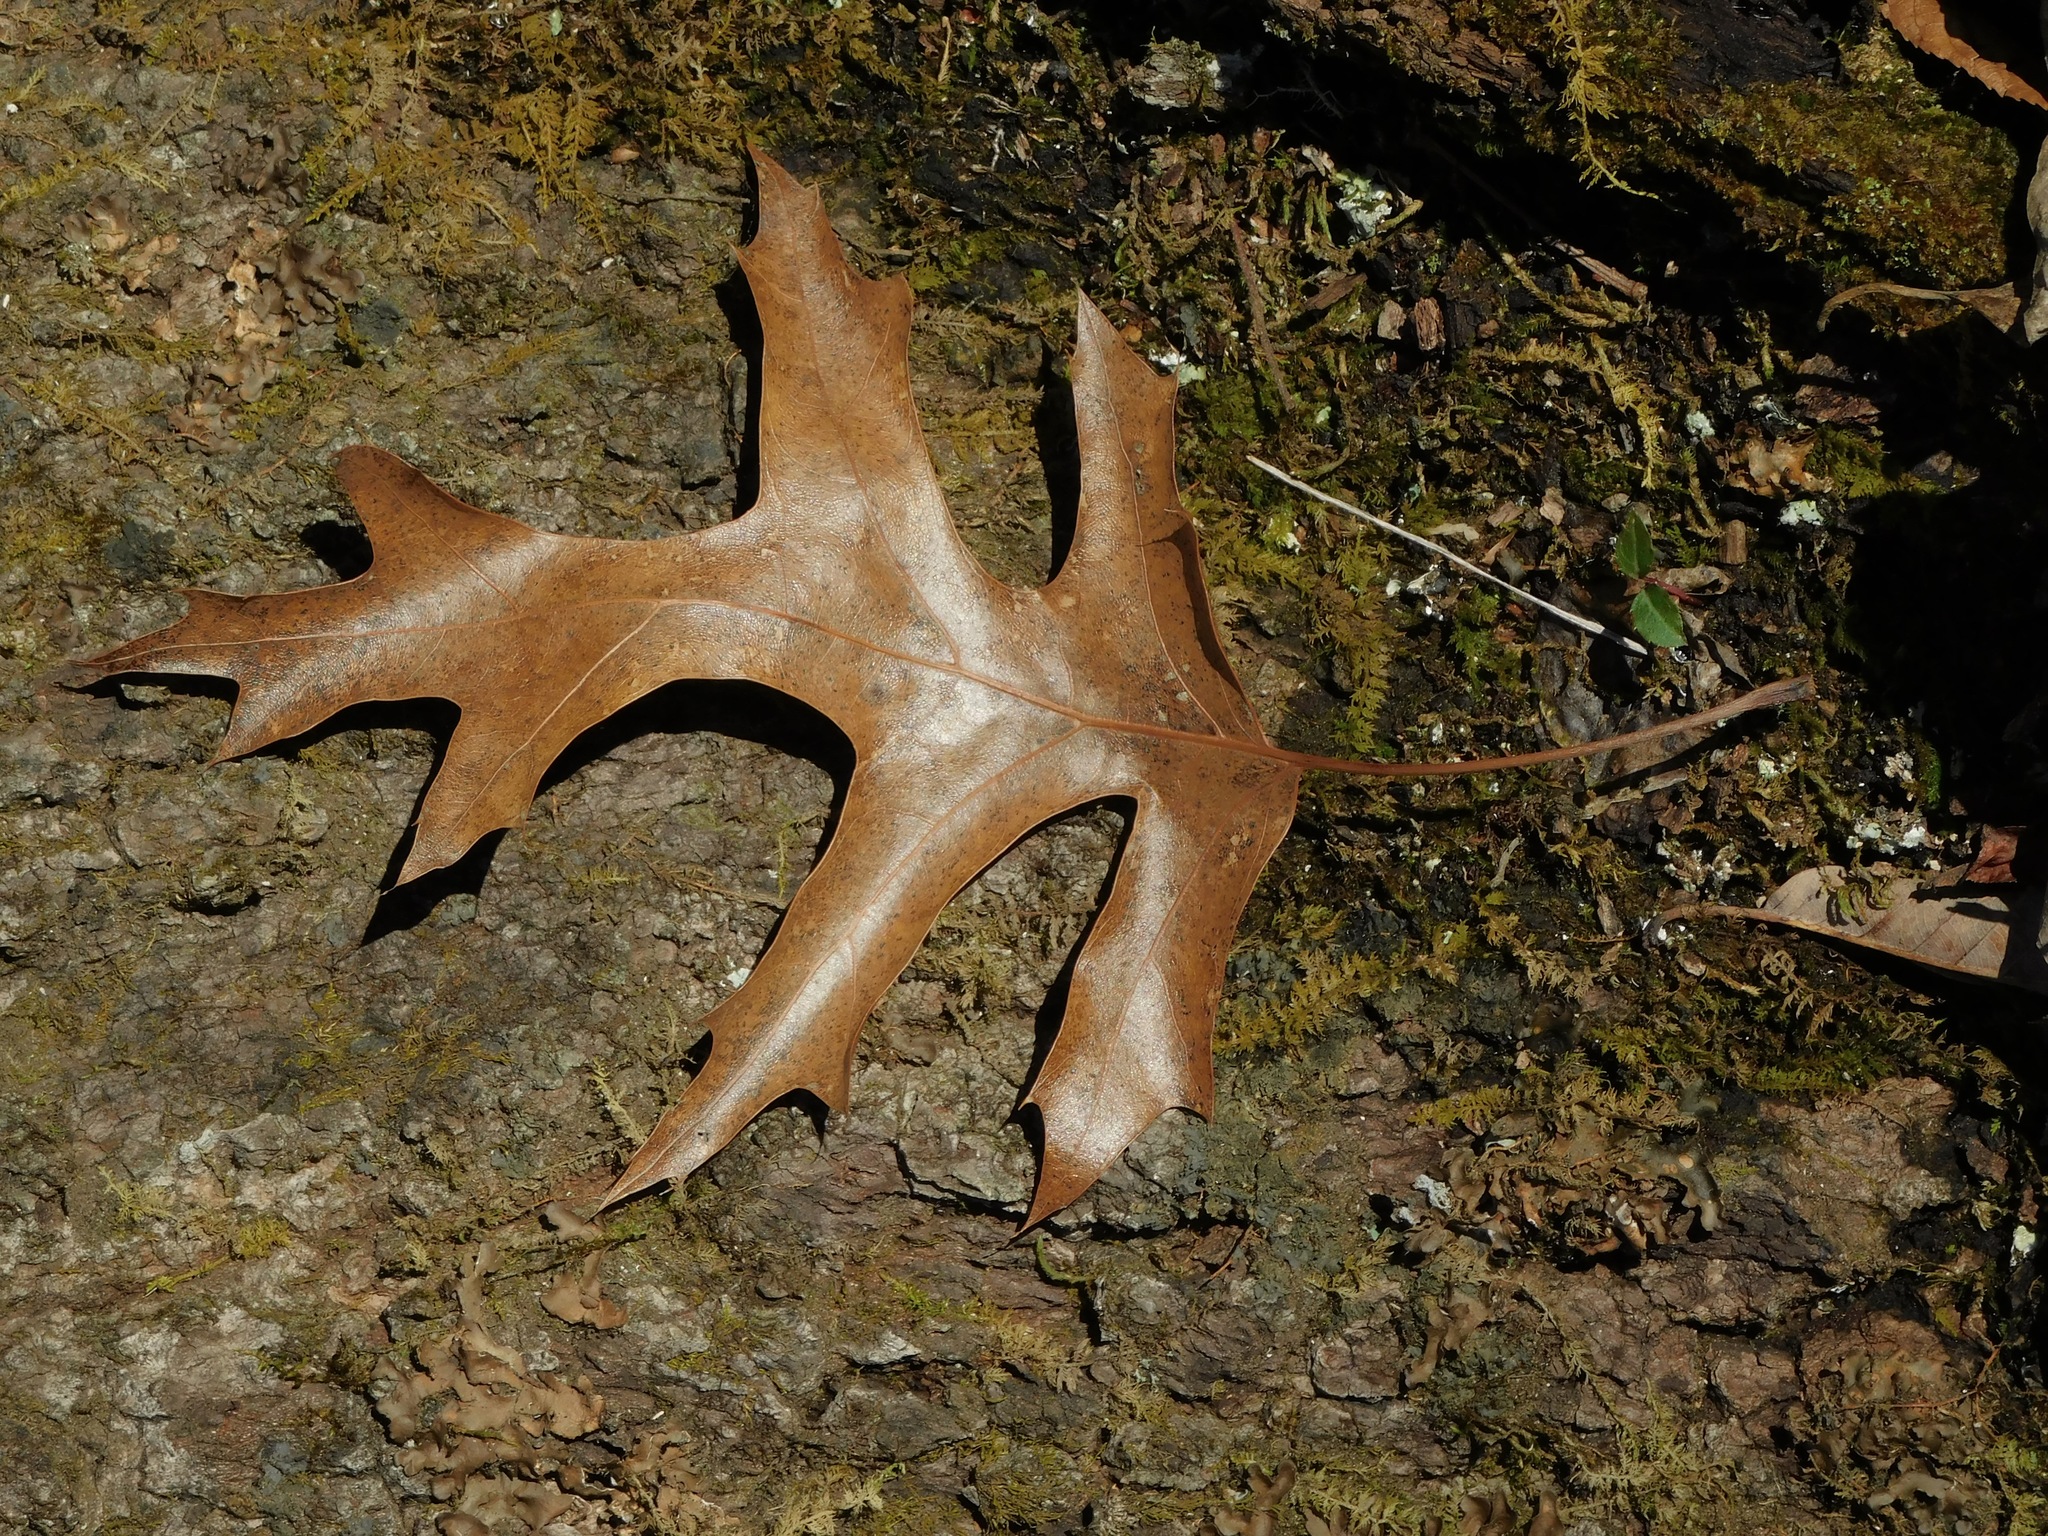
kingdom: Plantae
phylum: Tracheophyta
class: Magnoliopsida
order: Fagales
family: Fagaceae
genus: Quercus
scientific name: Quercus coccinea
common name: Scarlet oak
